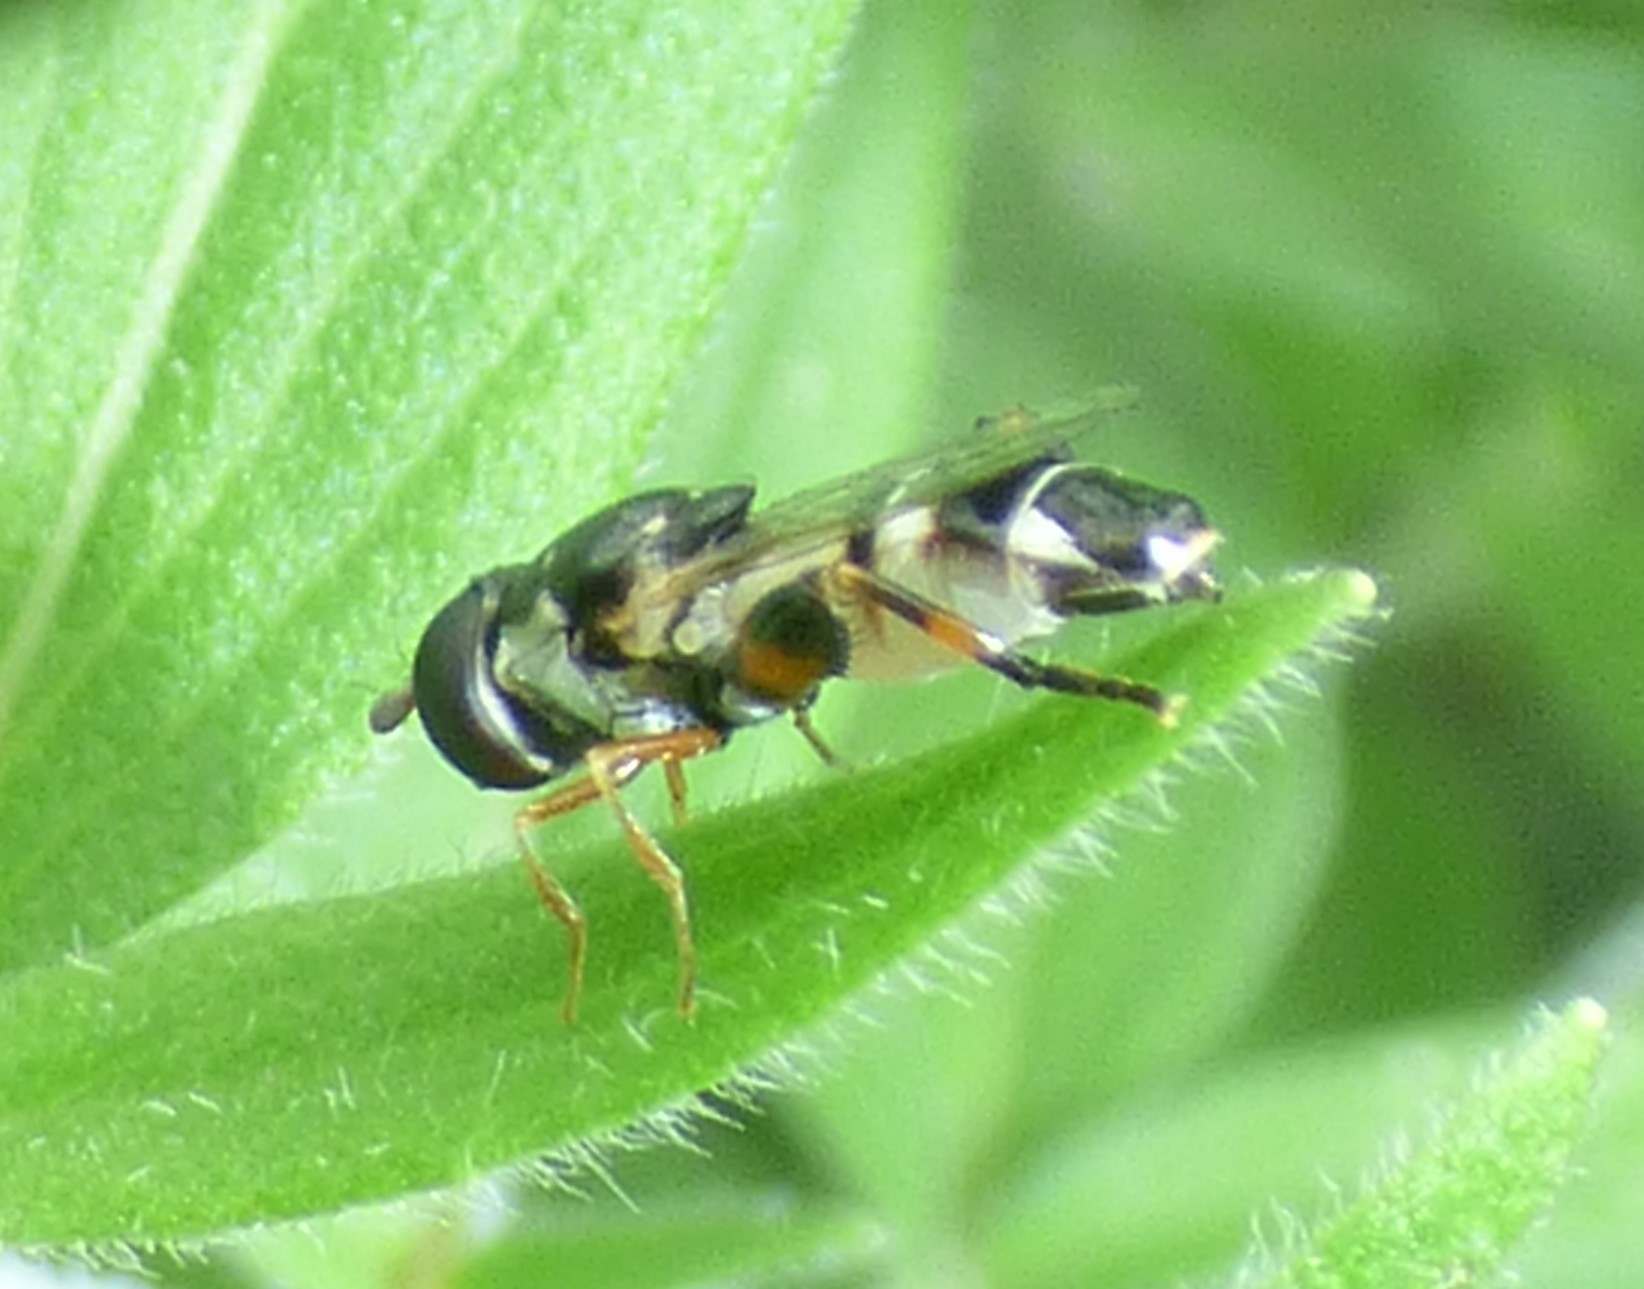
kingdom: Animalia
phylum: Arthropoda
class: Insecta
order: Diptera
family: Syrphidae
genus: Syritta
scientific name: Syritta flaviventris
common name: Syrphid fly
